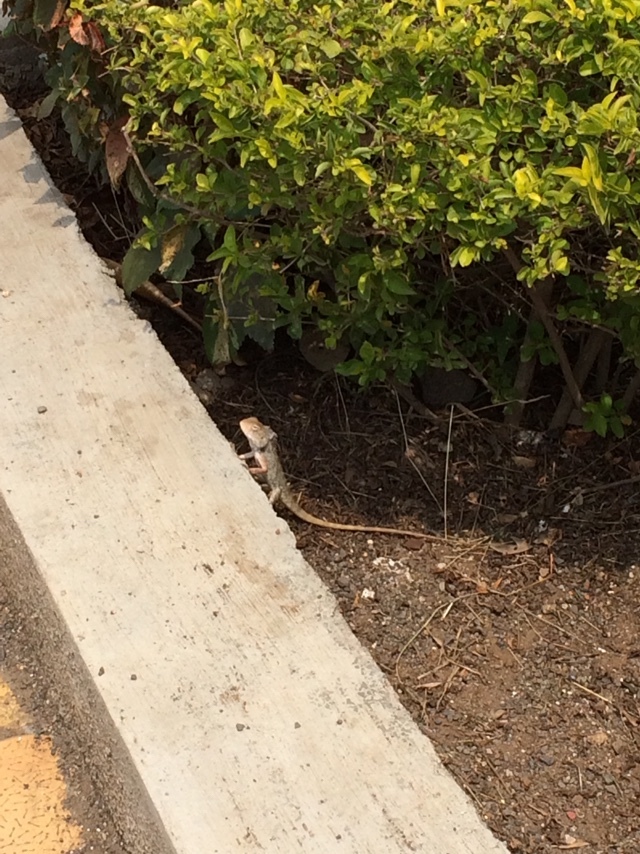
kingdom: Animalia
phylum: Chordata
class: Squamata
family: Agamidae
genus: Calotes
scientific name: Calotes versicolor
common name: Oriental garden lizard
